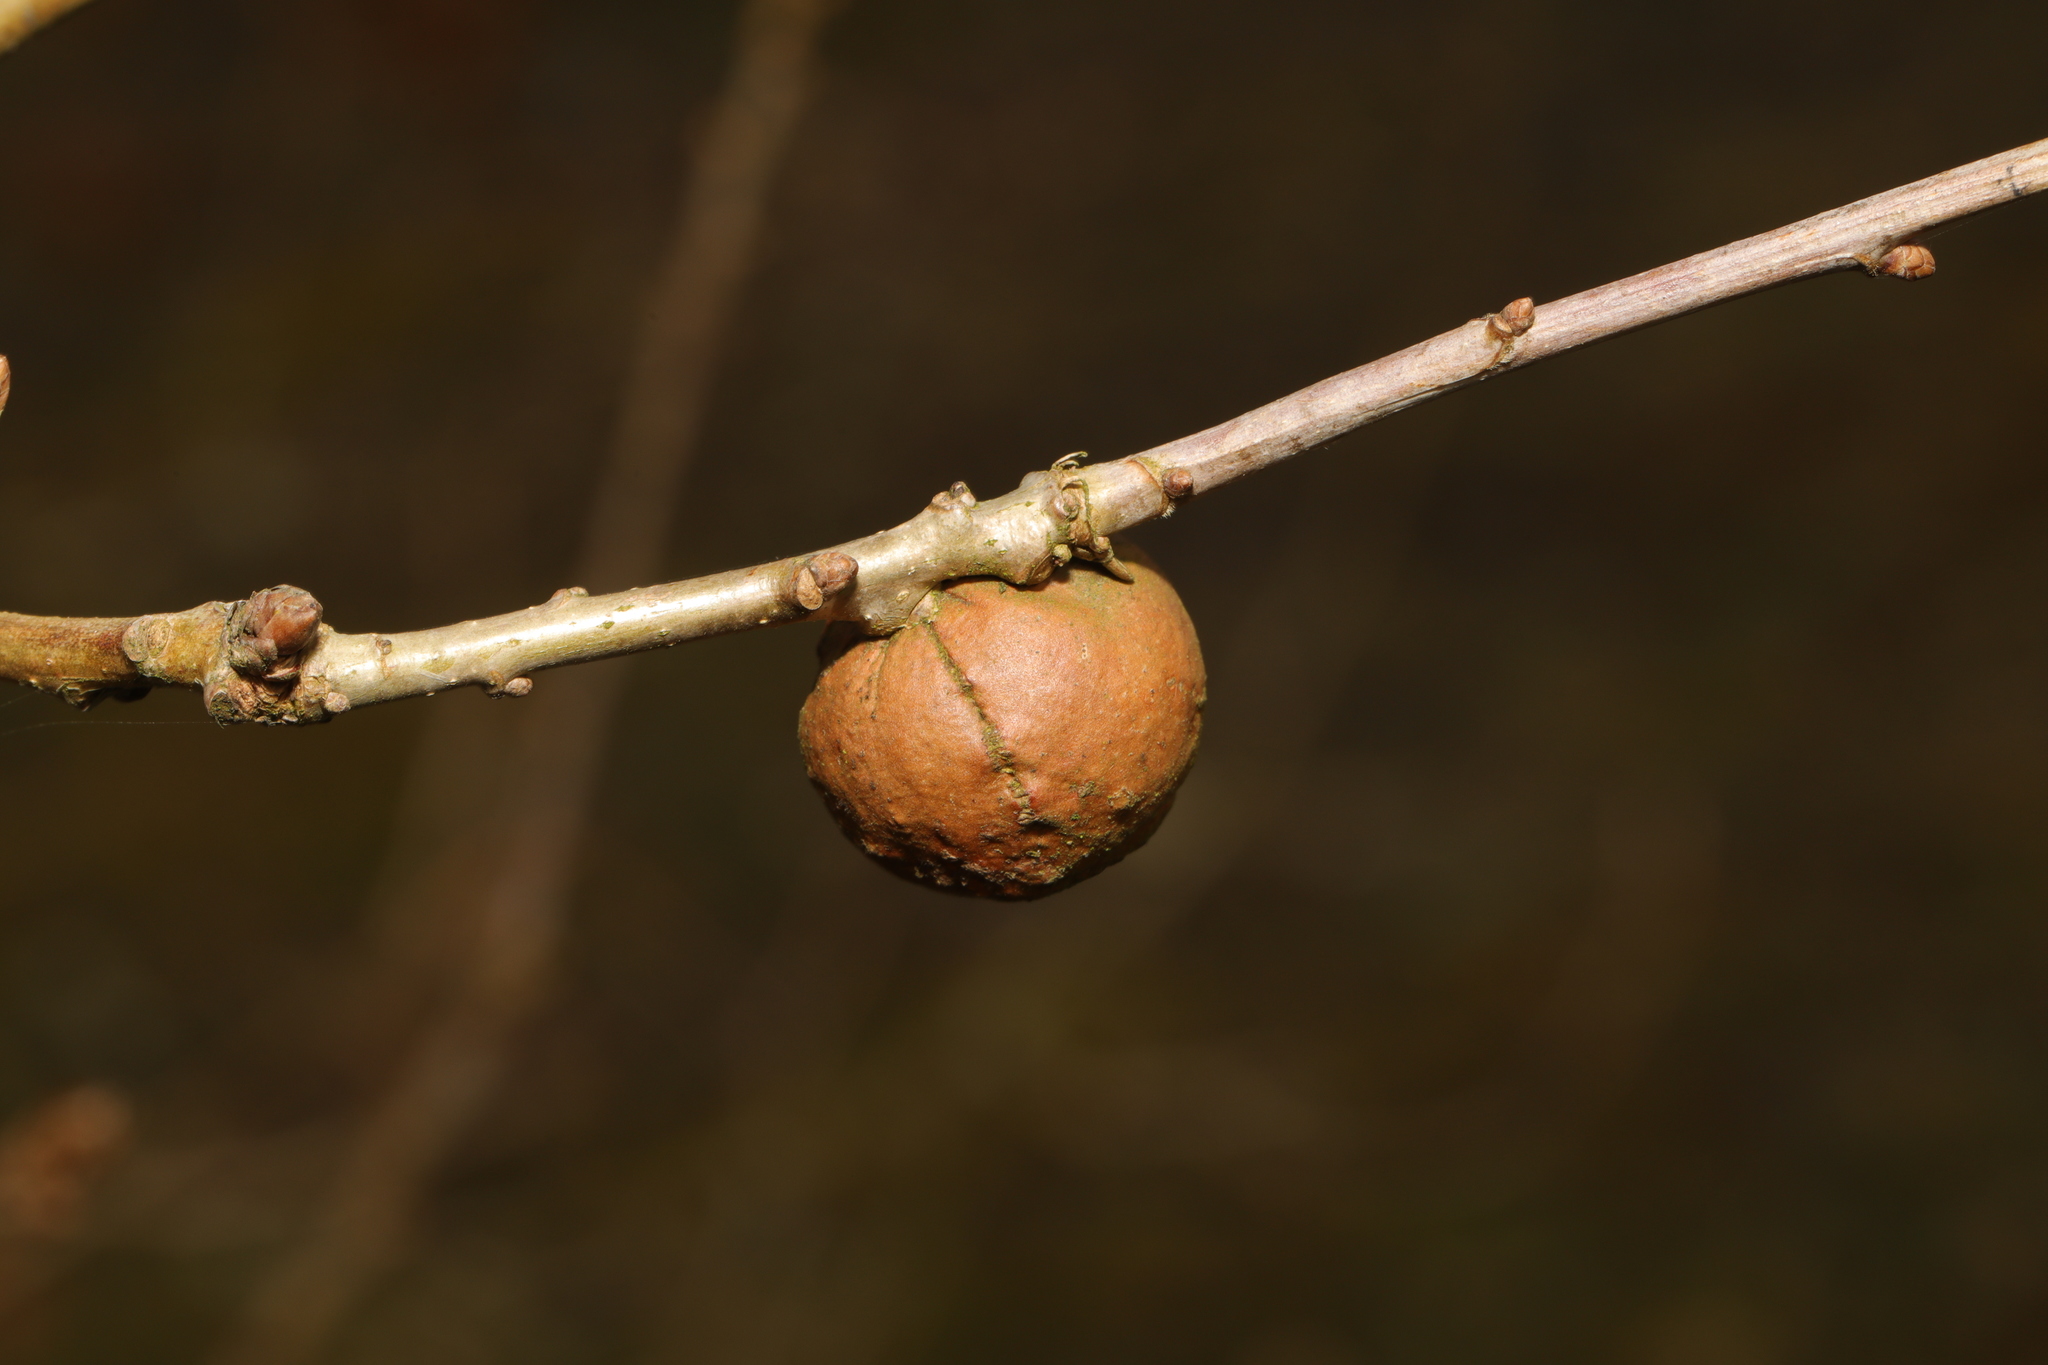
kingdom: Animalia
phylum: Arthropoda
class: Insecta
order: Hymenoptera
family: Cynipidae
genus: Andricus
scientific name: Andricus kollari
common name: Marble gall
